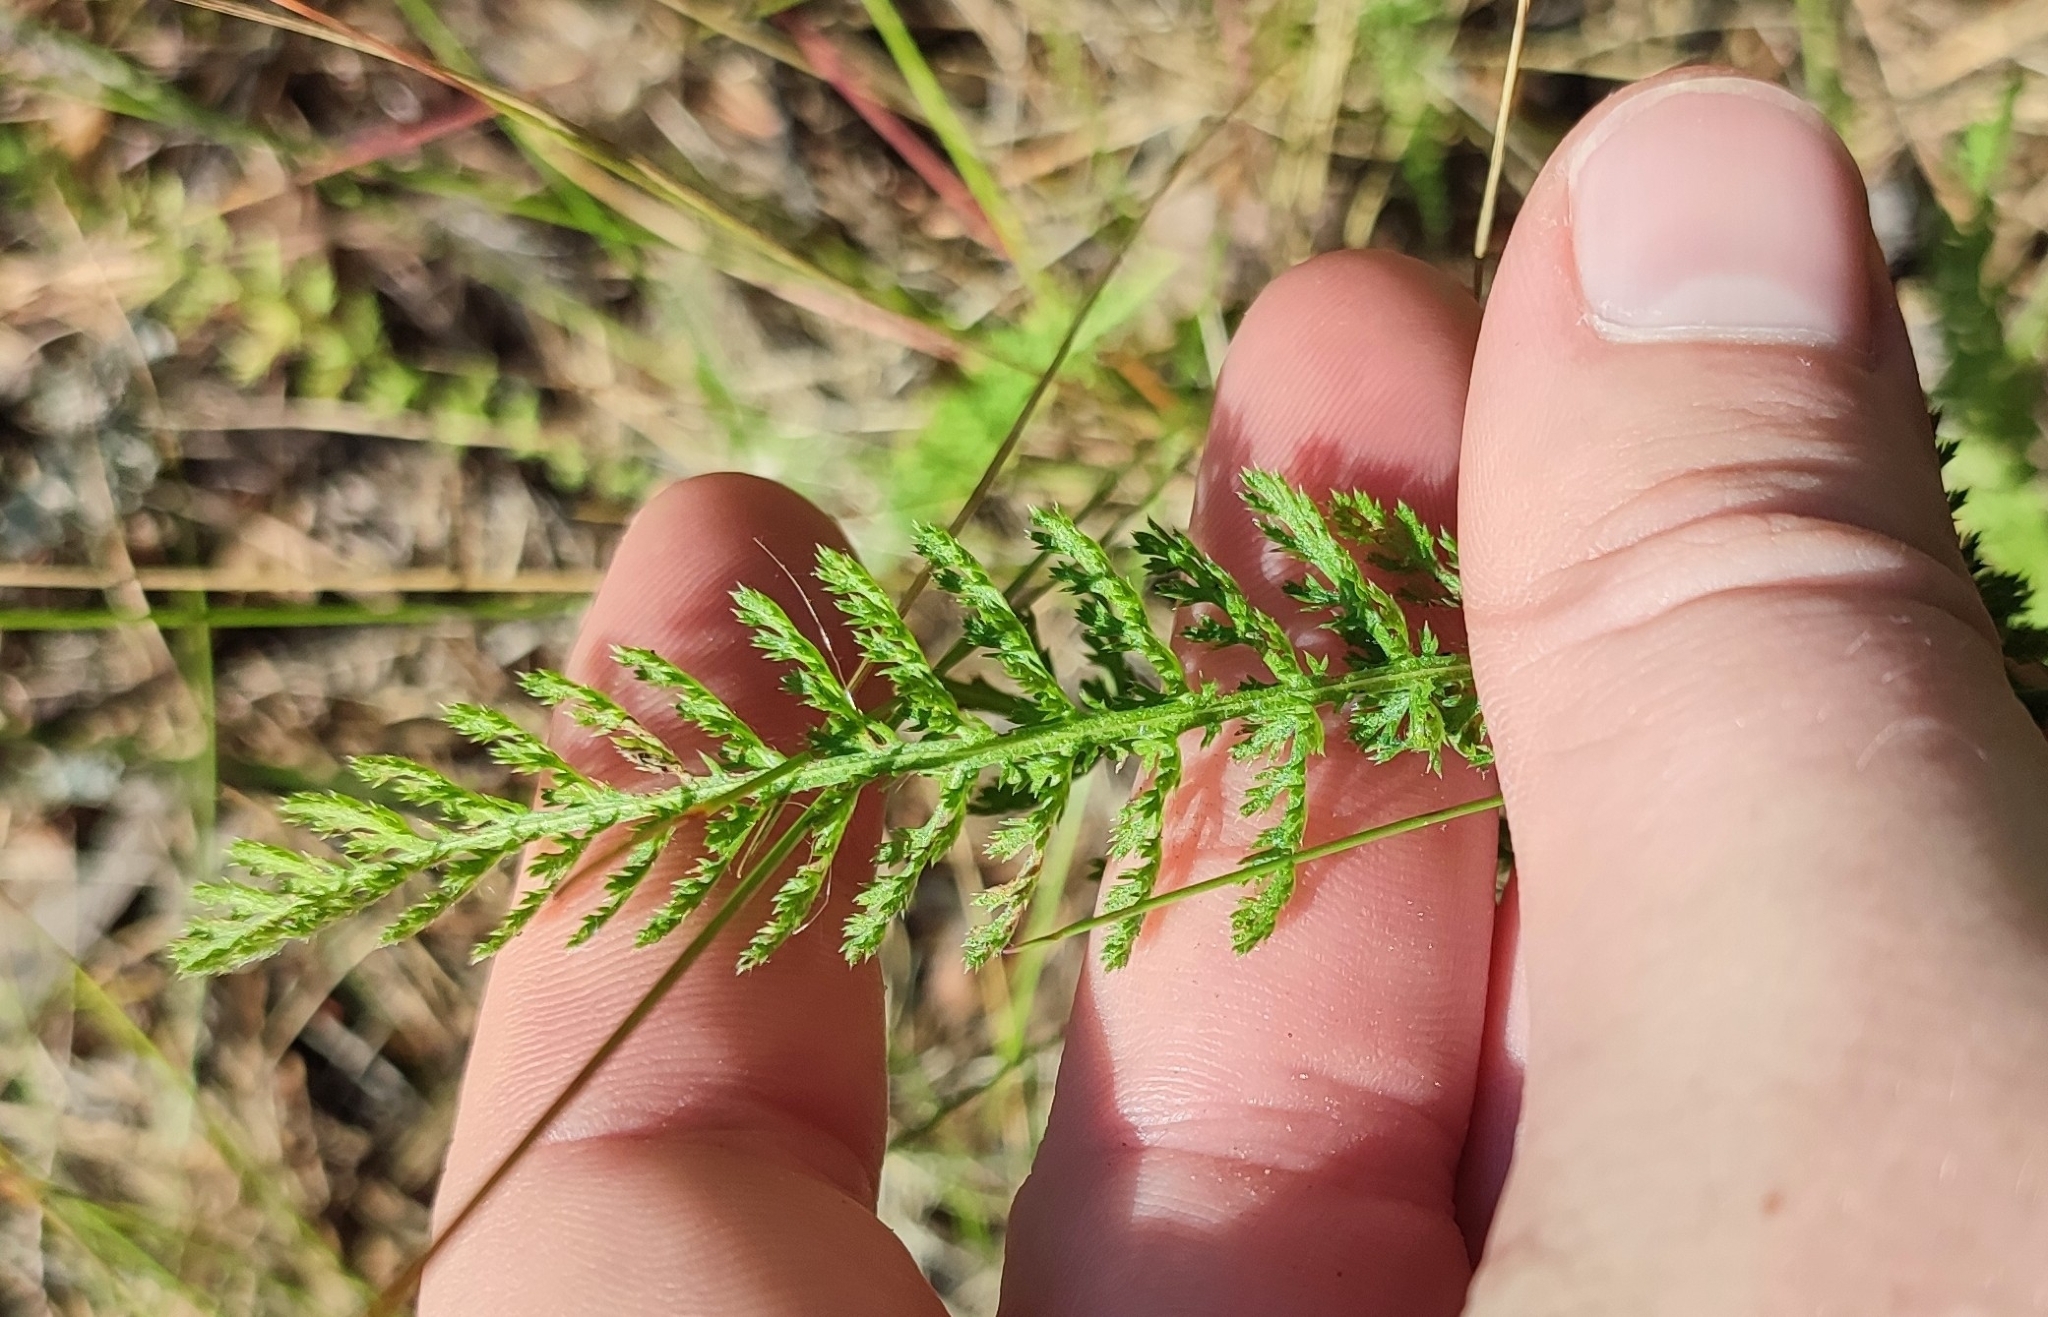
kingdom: Plantae
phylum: Tracheophyta
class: Magnoliopsida
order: Asterales
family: Asteraceae
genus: Achillea
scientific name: Achillea millefolium
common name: Yarrow
